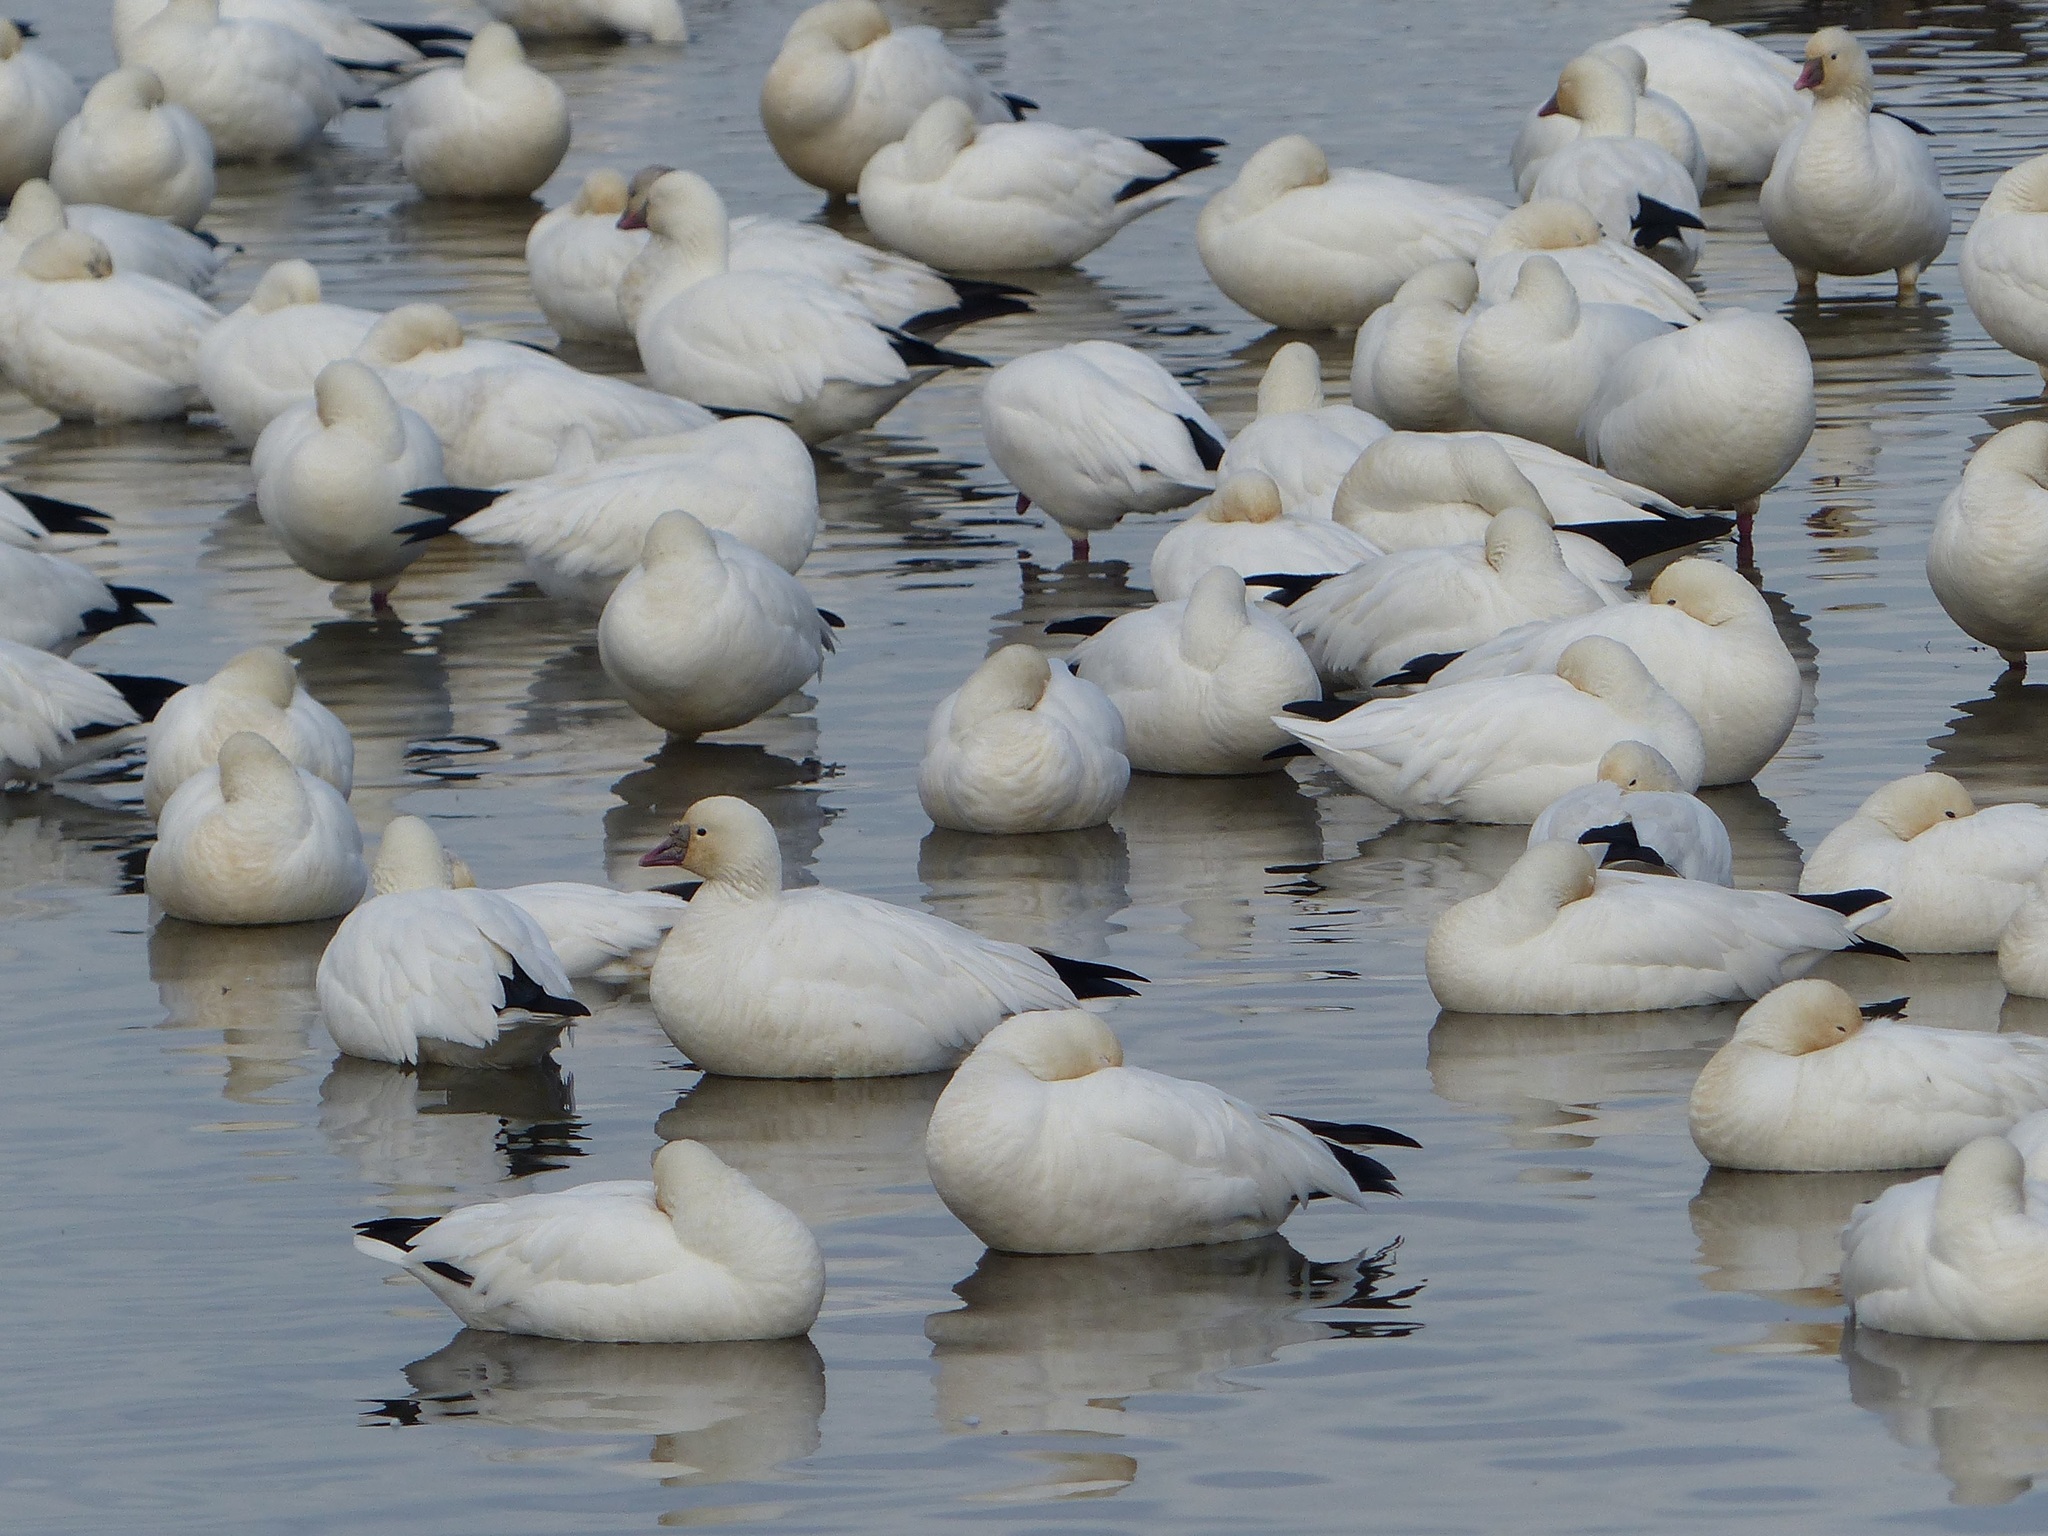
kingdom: Animalia
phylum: Chordata
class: Aves
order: Anseriformes
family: Anatidae
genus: Anser
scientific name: Anser rossii
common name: Ross's goose
